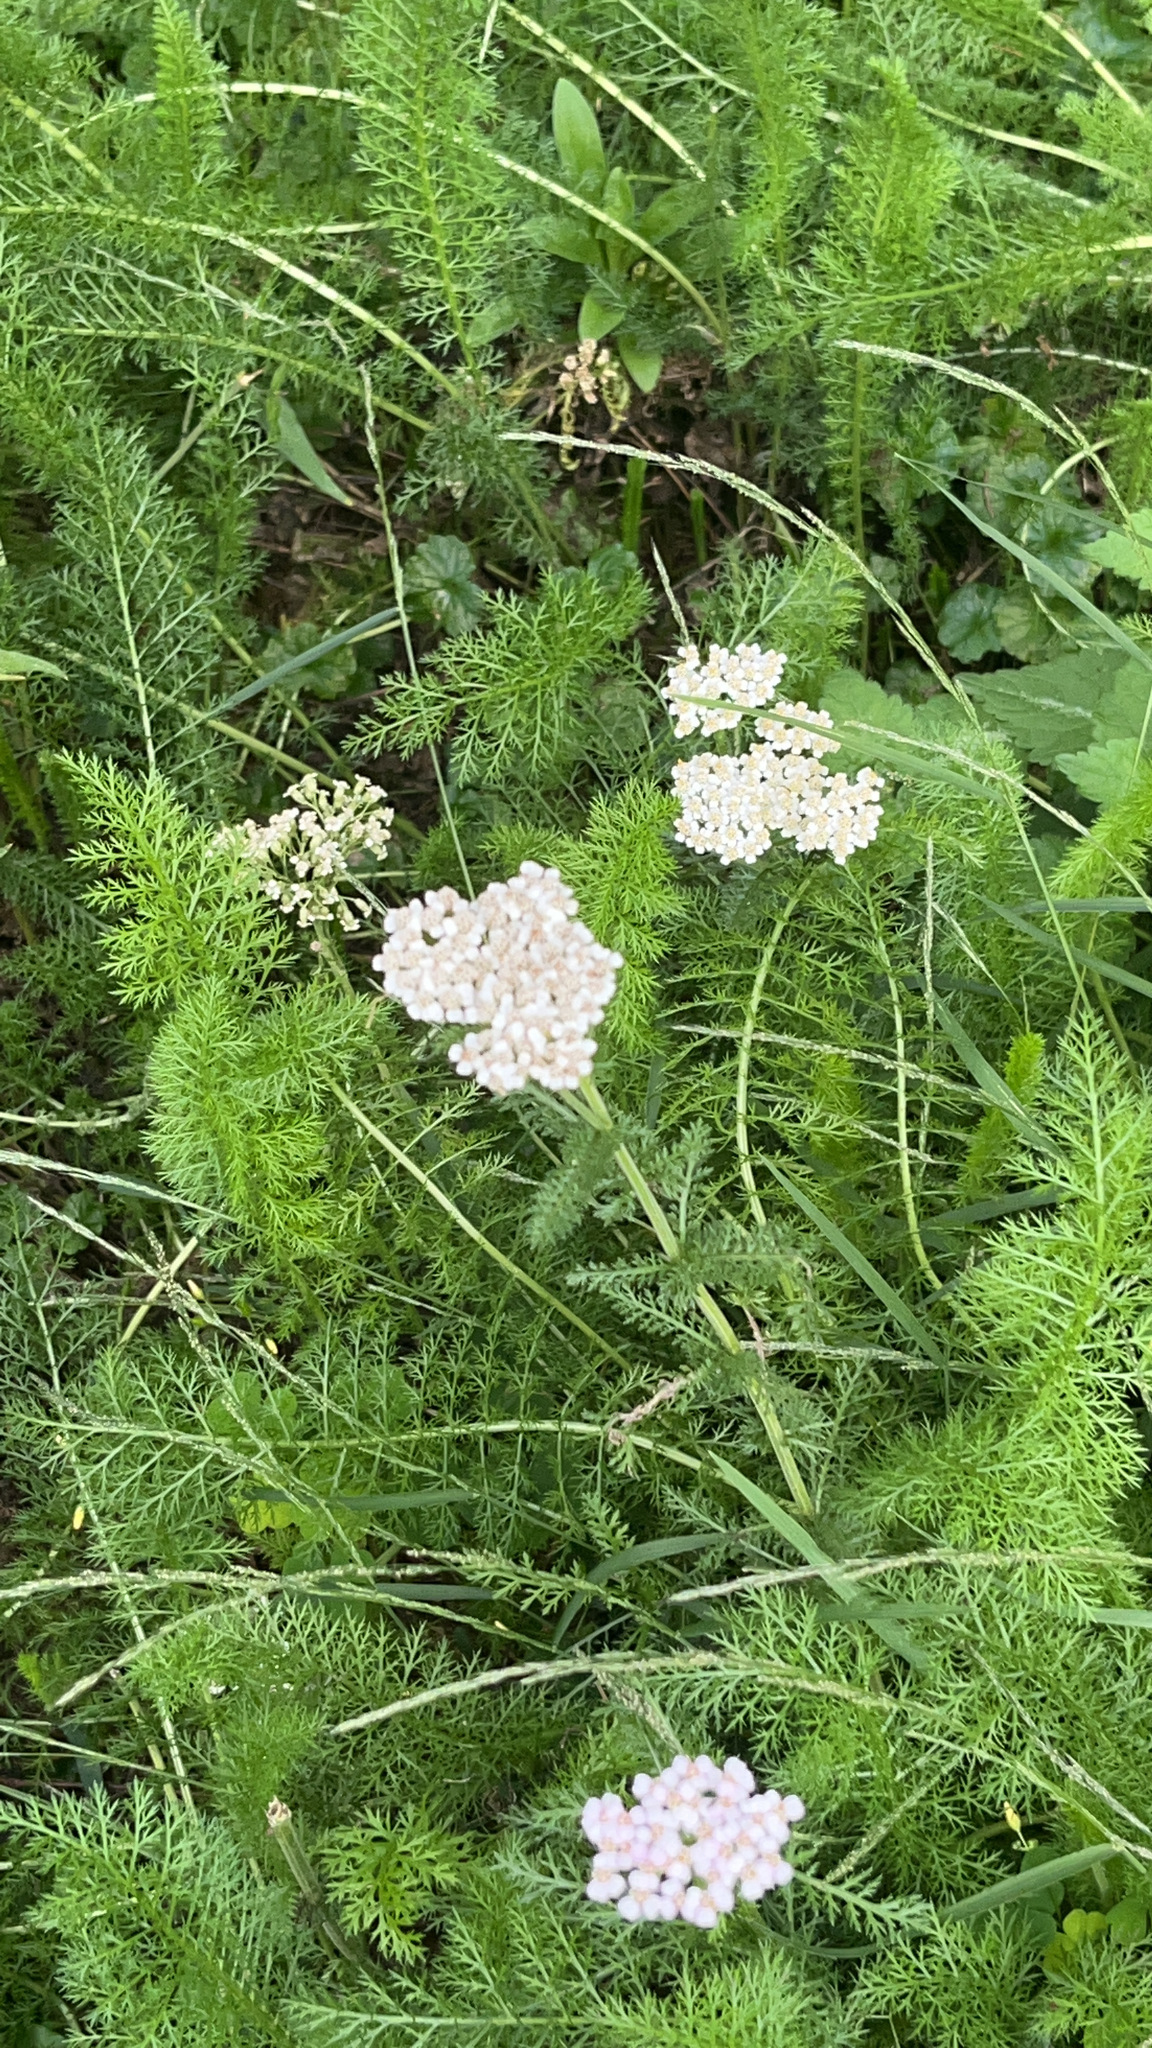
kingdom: Plantae
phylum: Tracheophyta
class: Magnoliopsida
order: Asterales
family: Asteraceae
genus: Achillea
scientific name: Achillea millefolium
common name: Yarrow
